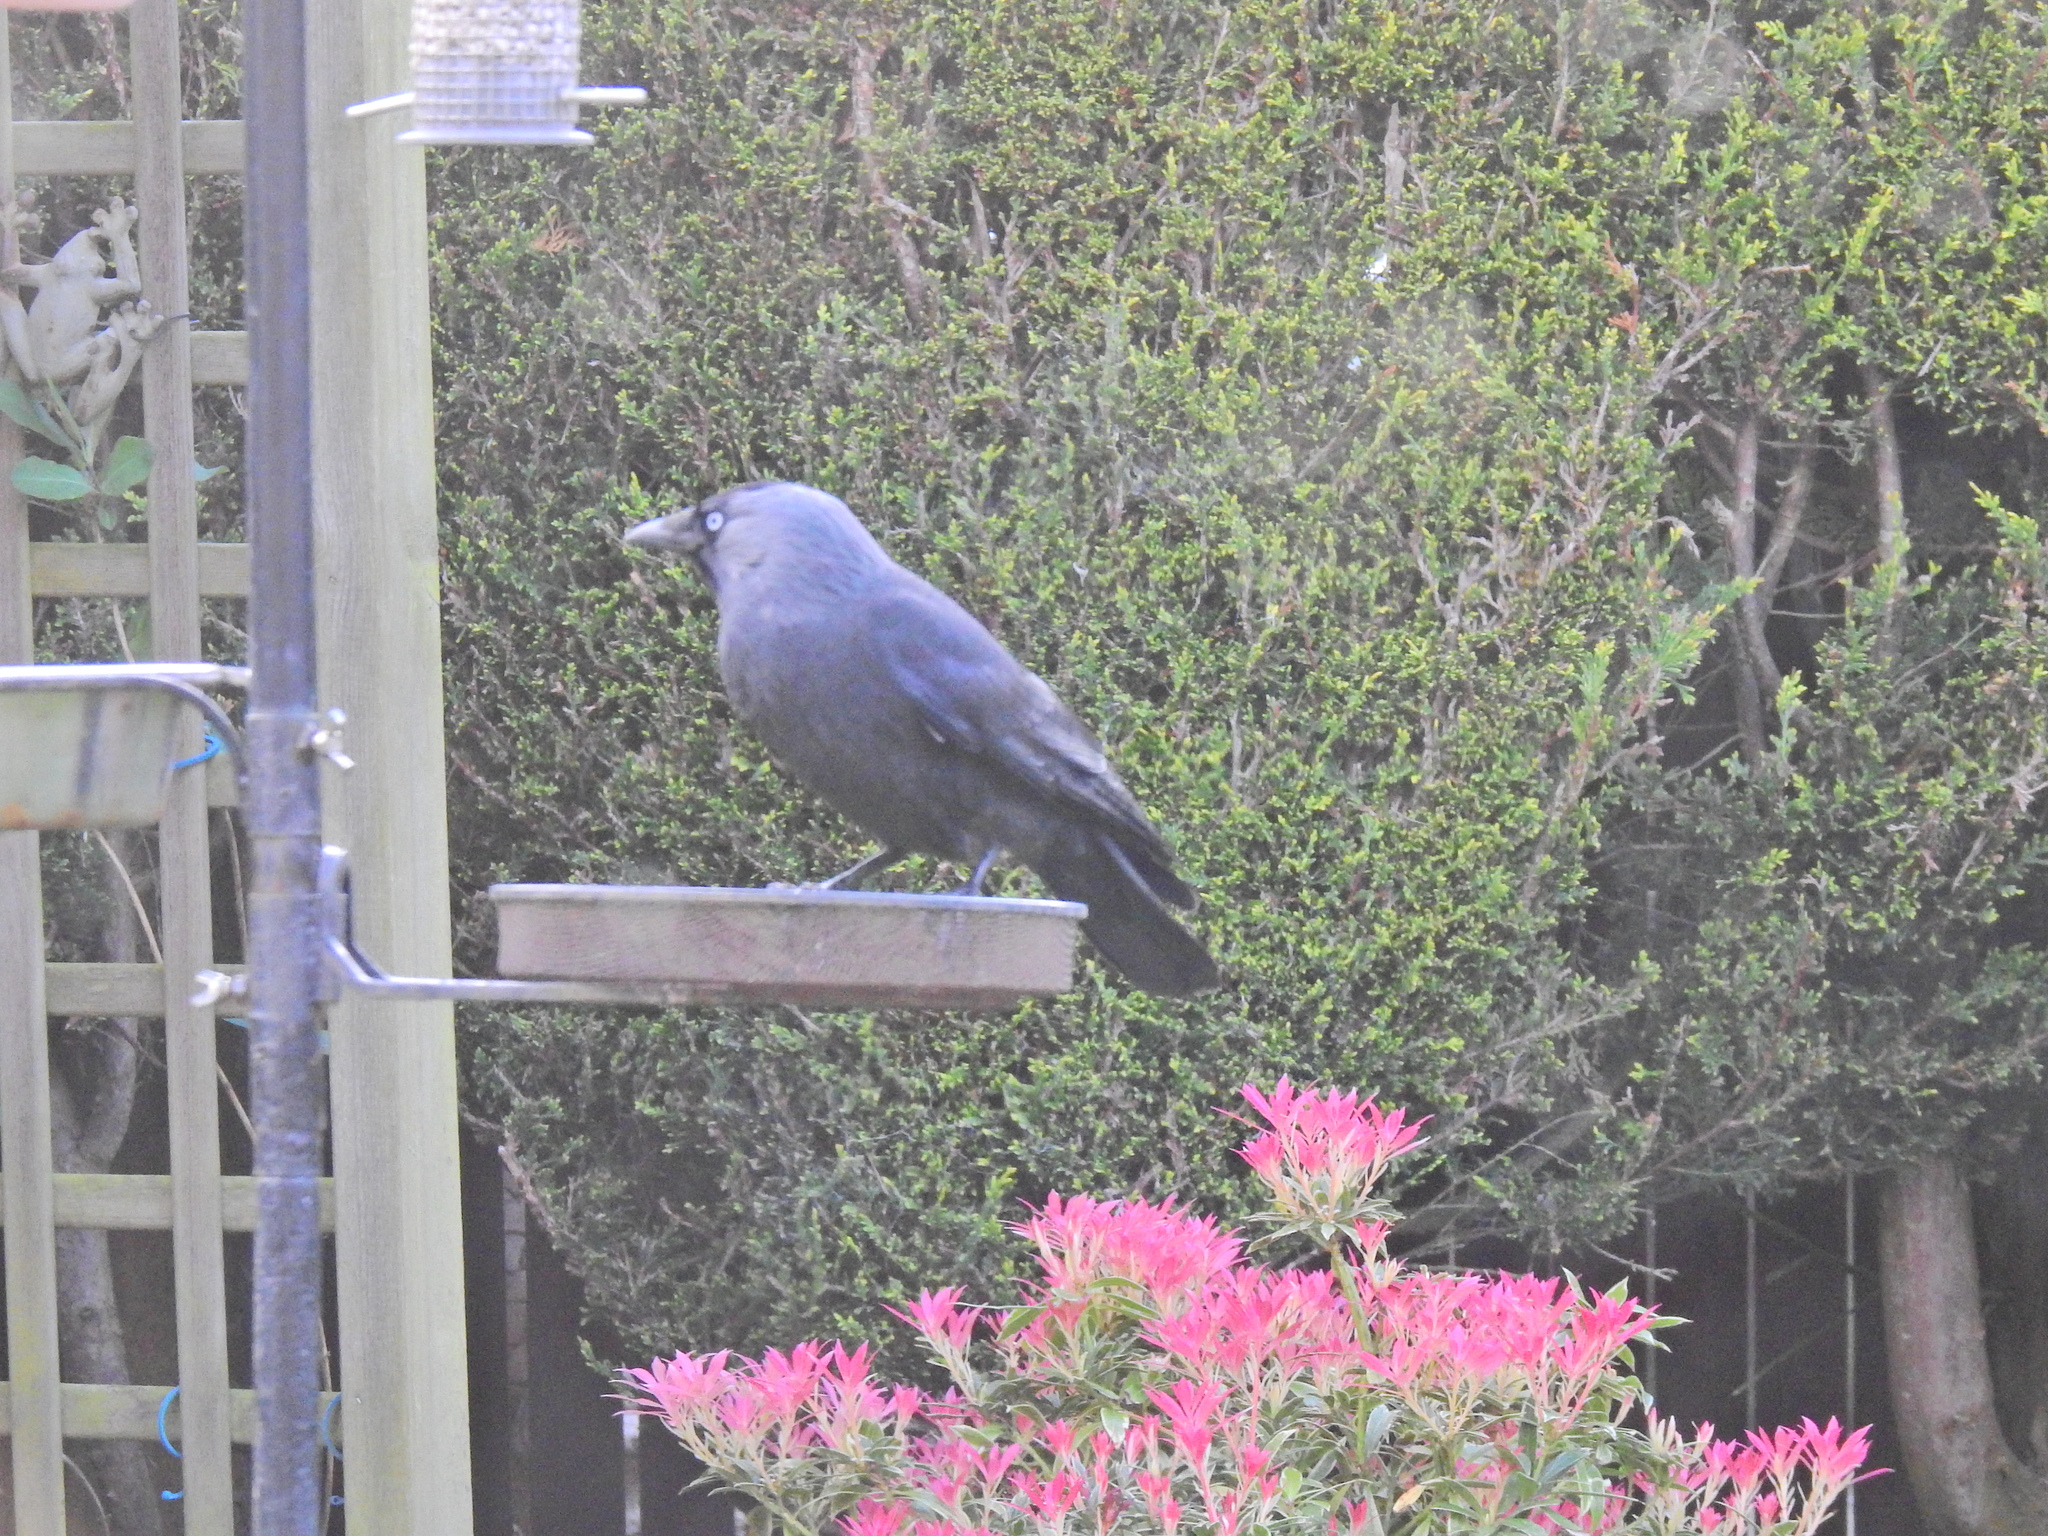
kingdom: Animalia
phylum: Chordata
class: Aves
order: Passeriformes
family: Corvidae
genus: Coloeus
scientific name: Coloeus monedula
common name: Western jackdaw
